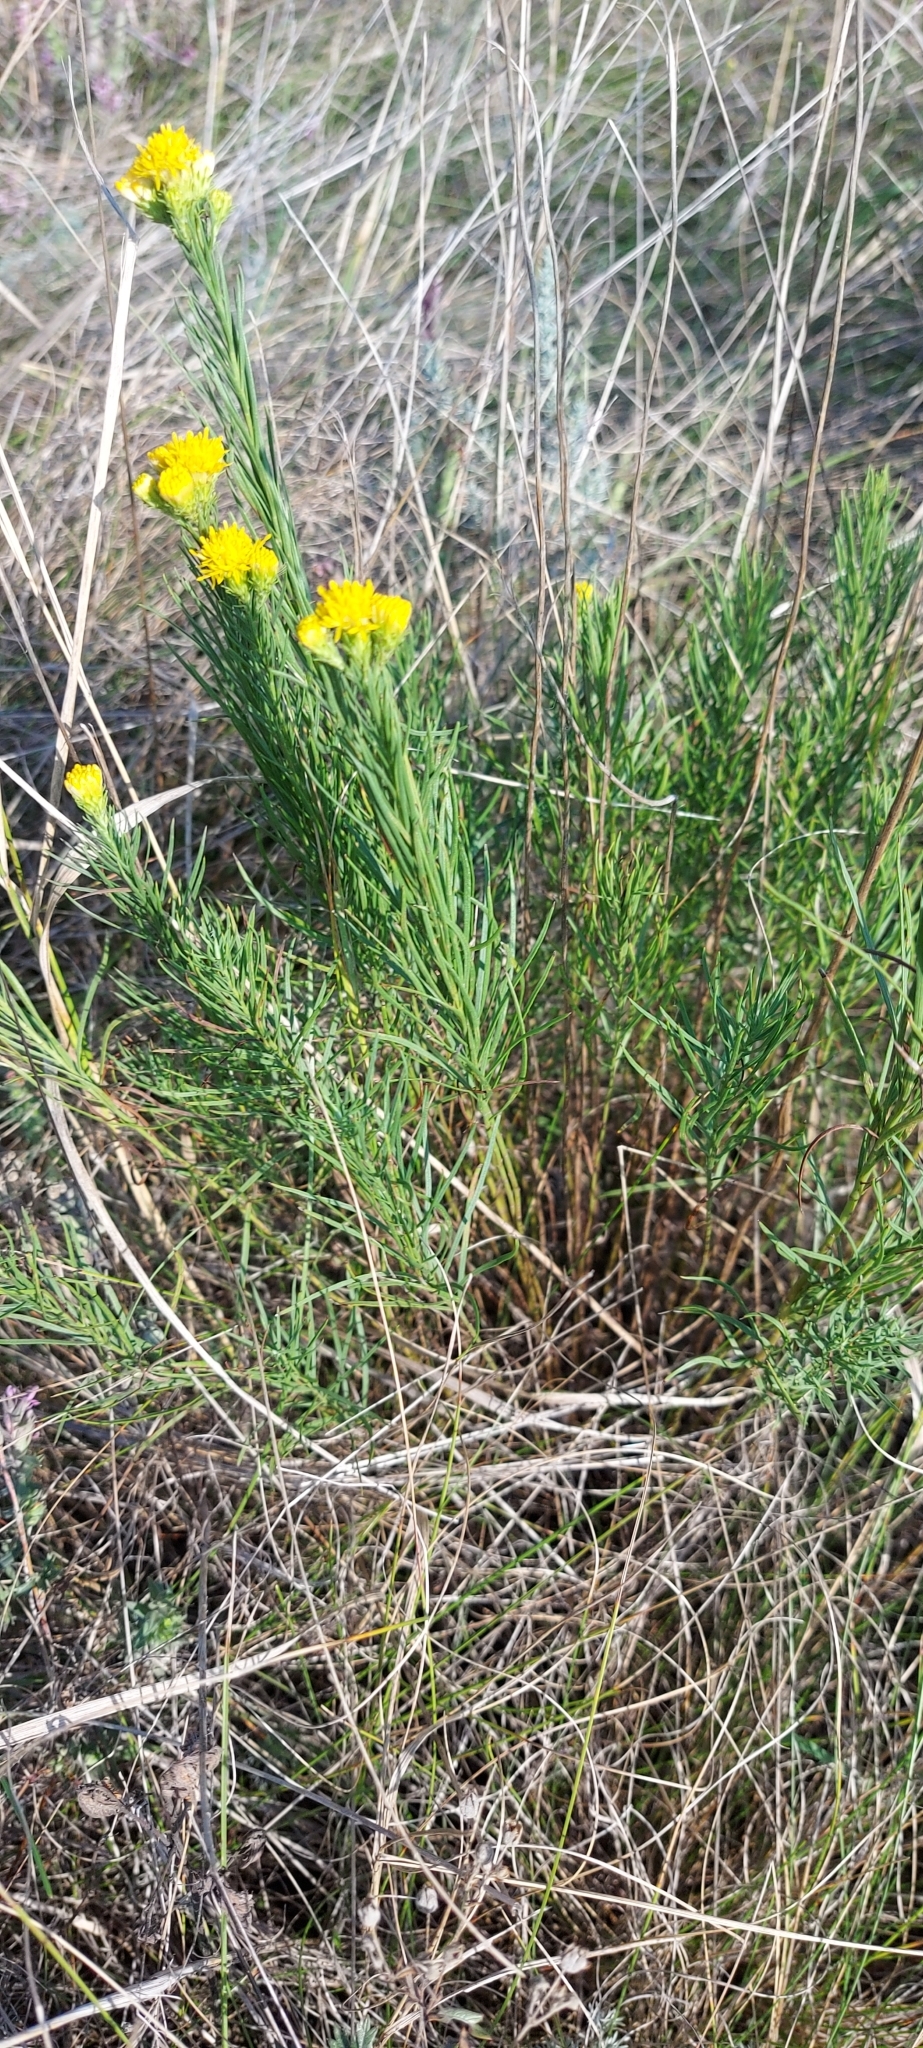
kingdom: Plantae
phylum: Tracheophyta
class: Magnoliopsida
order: Asterales
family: Asteraceae
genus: Galatella
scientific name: Galatella linosyris
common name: Goldilocks aster
